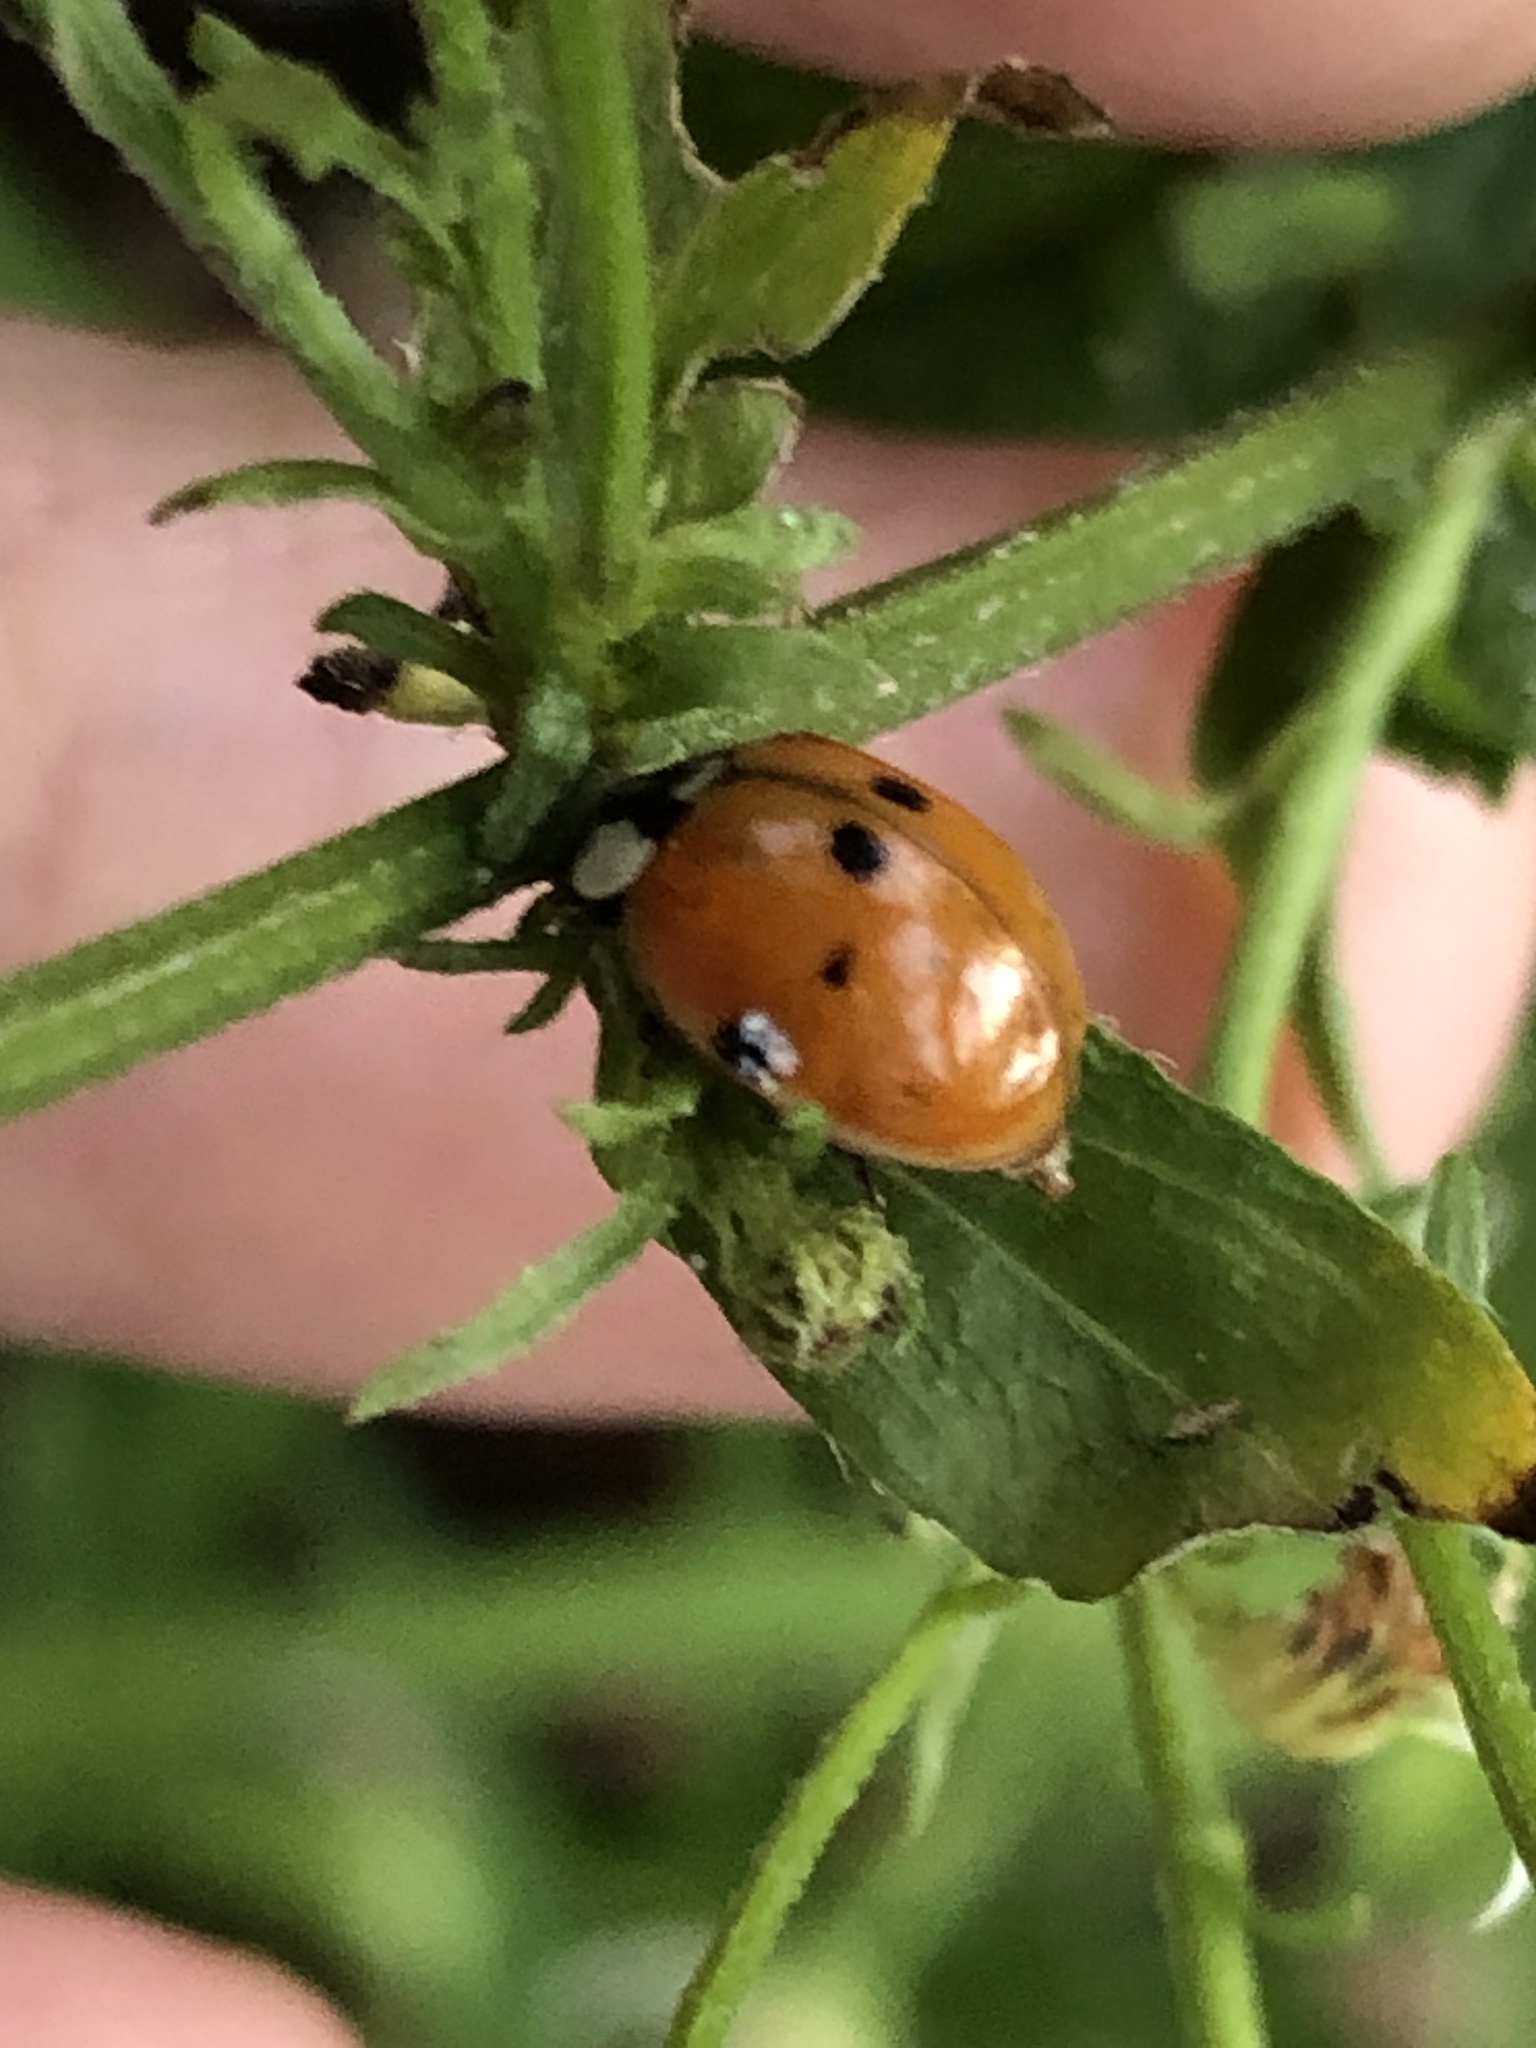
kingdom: Animalia
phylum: Arthropoda
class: Insecta
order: Coleoptera
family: Coccinellidae
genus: Harmonia
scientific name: Harmonia axyridis
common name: Harlequin ladybird
